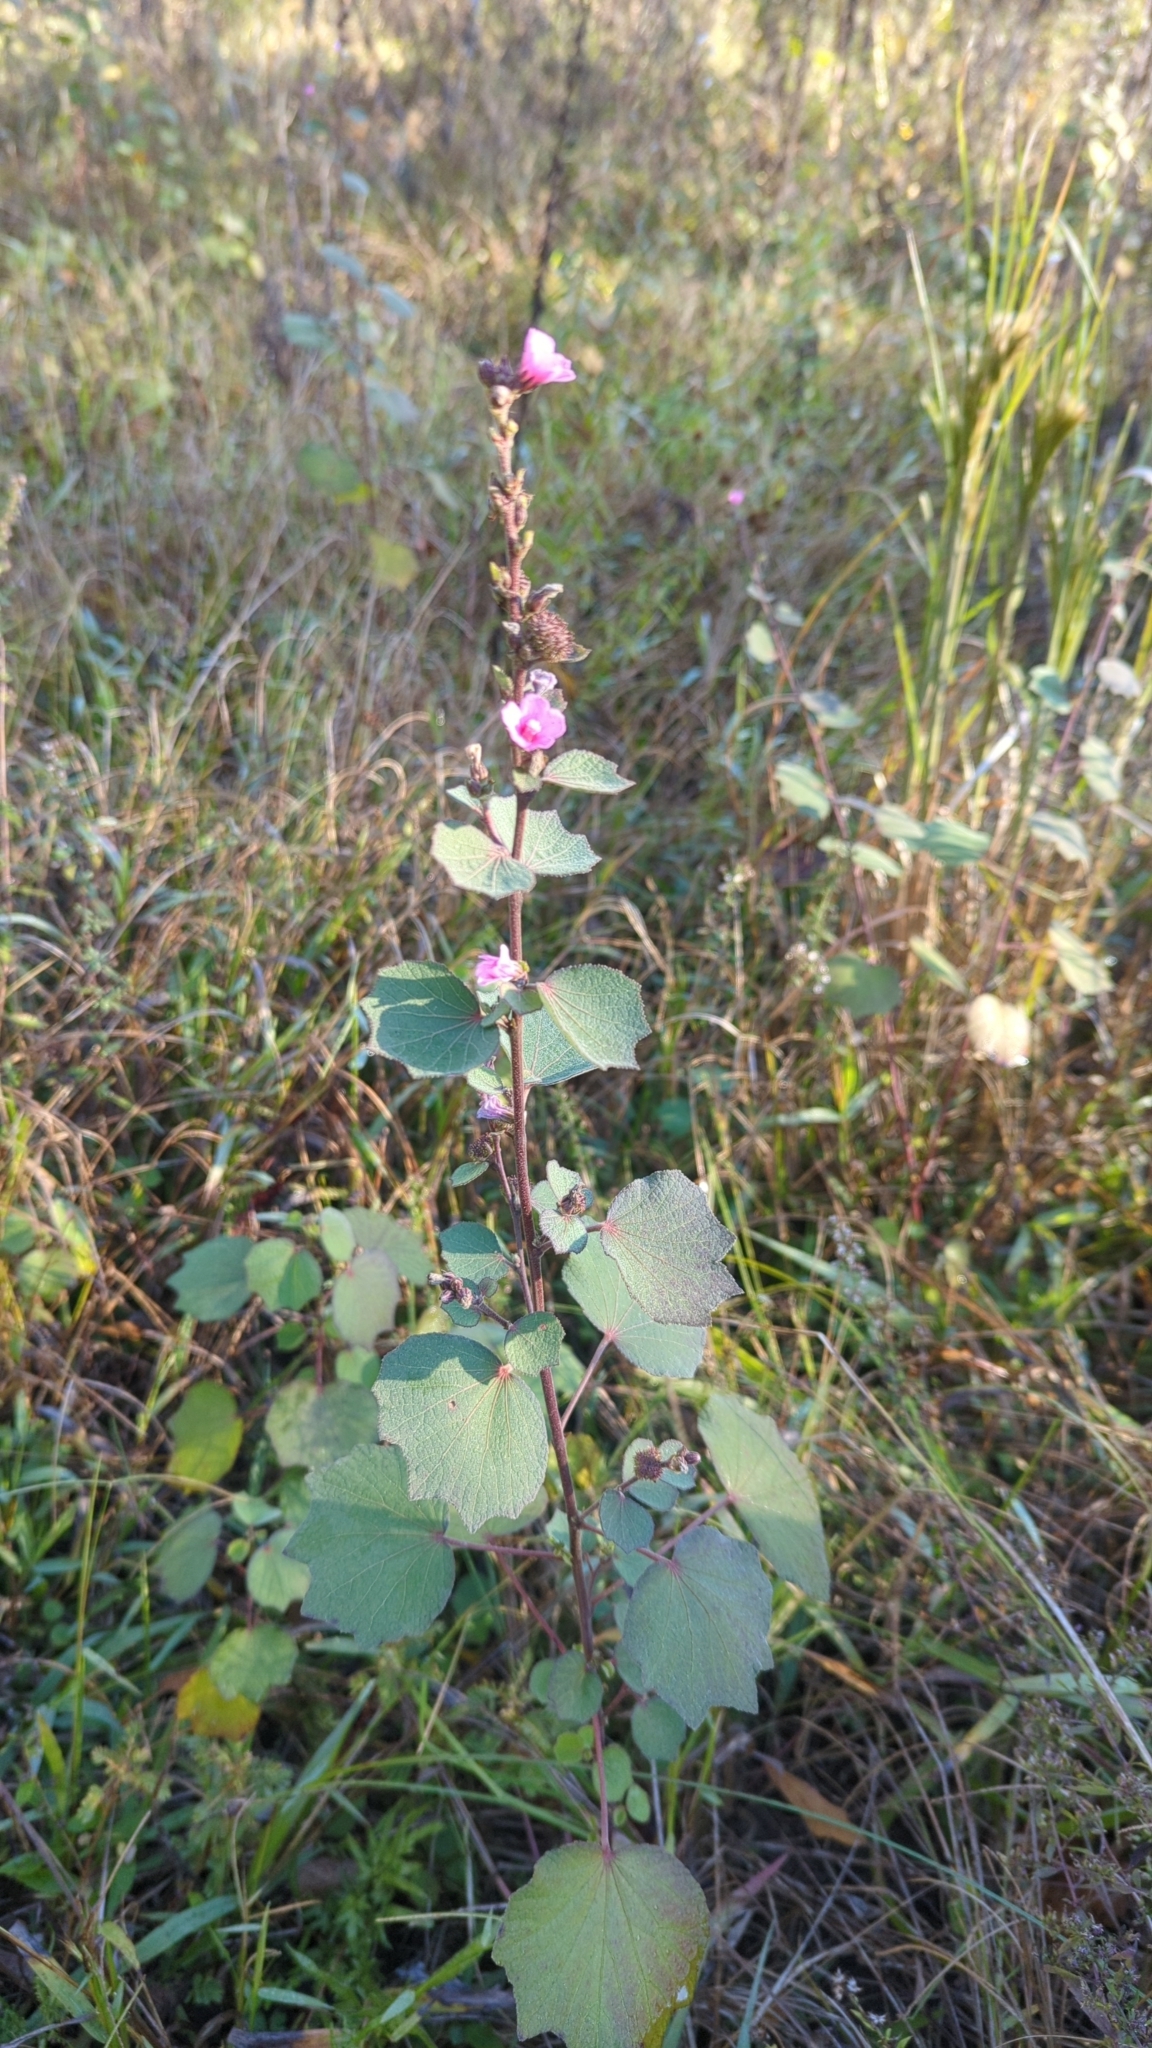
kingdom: Plantae
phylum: Tracheophyta
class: Magnoliopsida
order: Malvales
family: Malvaceae
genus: Urena
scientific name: Urena lobata
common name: Caesarweed
